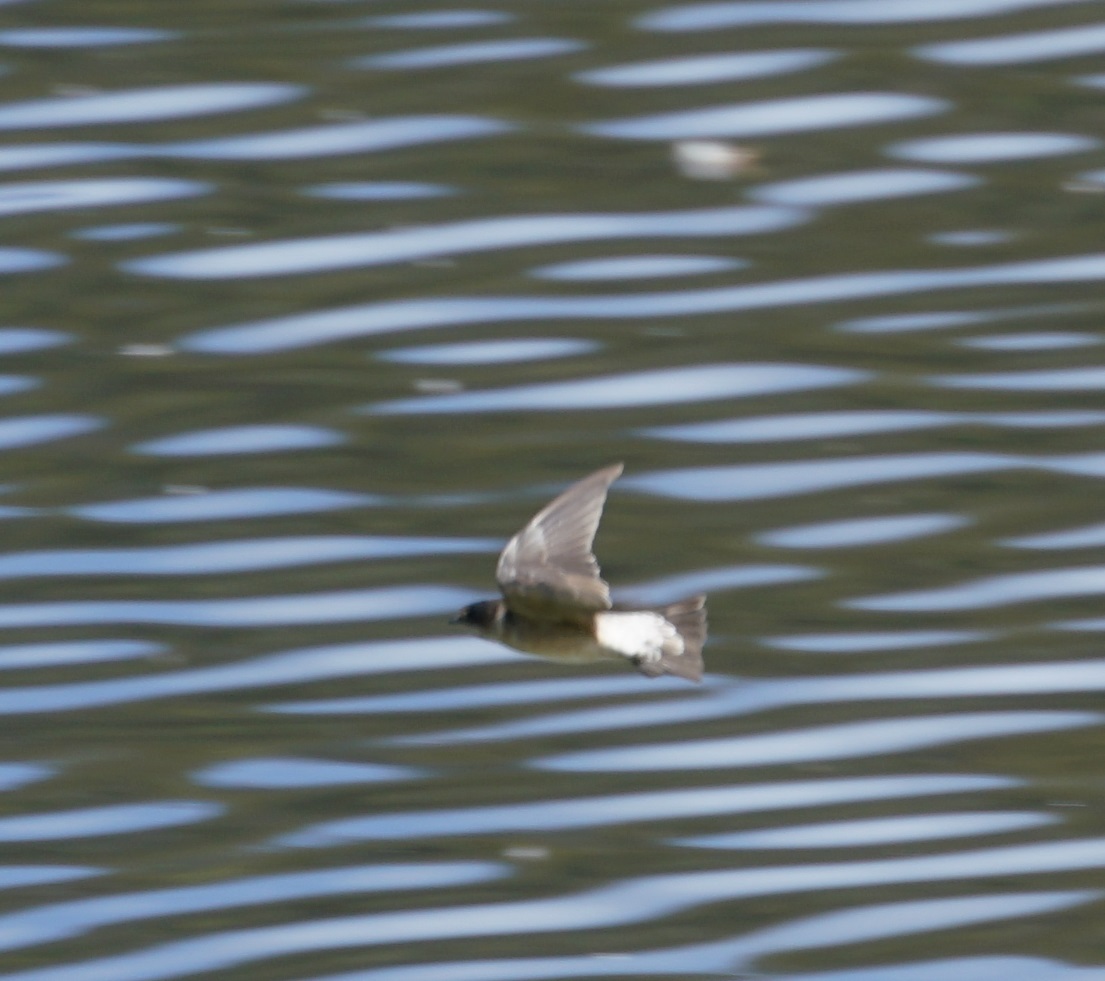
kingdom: Animalia
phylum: Chordata
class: Aves
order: Passeriformes
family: Hirundinidae
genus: Petrochelidon
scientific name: Petrochelidon nigricans
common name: Tree martin
